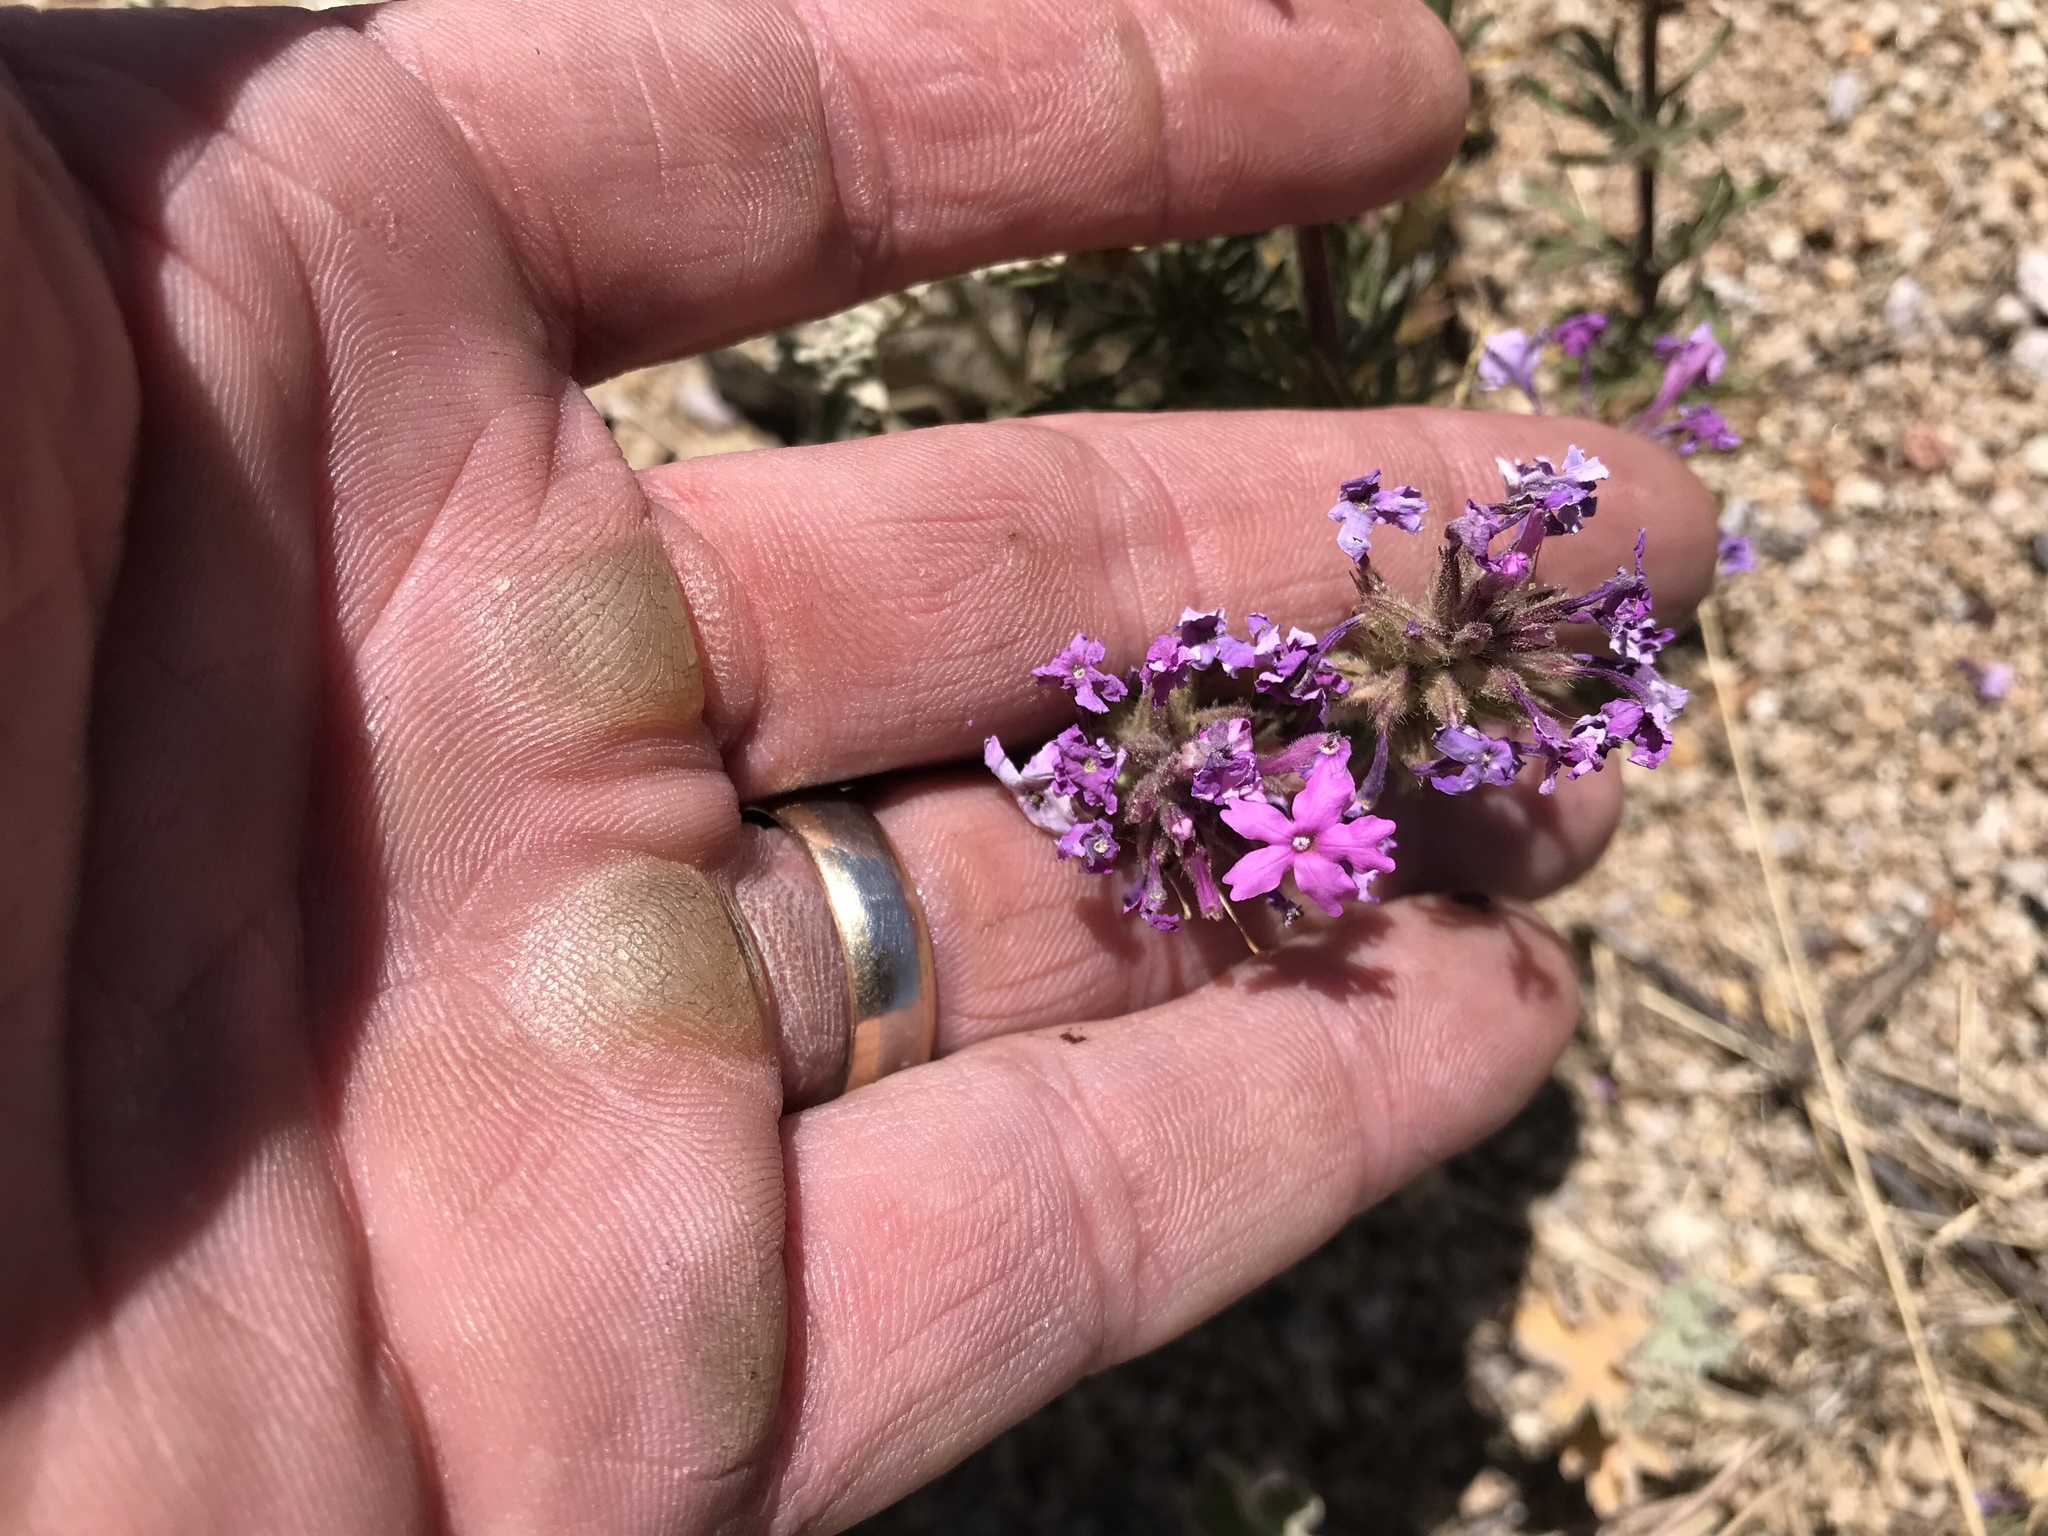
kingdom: Plantae
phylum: Tracheophyta
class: Magnoliopsida
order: Lamiales
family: Verbenaceae
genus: Verbena
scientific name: Verbena bipinnatifida
